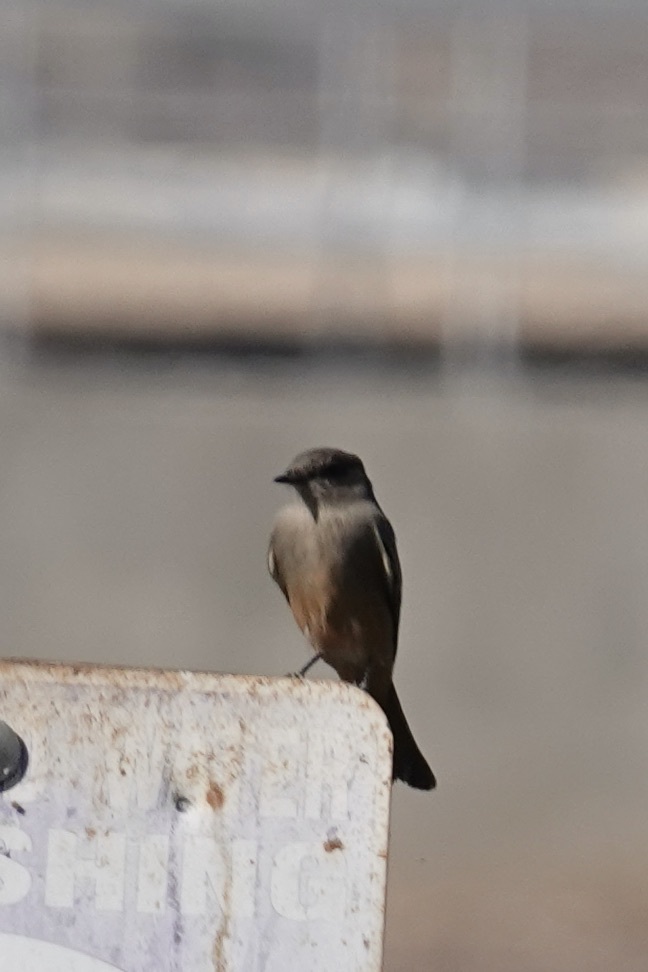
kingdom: Animalia
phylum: Chordata
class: Aves
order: Passeriformes
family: Tyrannidae
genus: Sayornis
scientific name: Sayornis saya
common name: Say's phoebe
